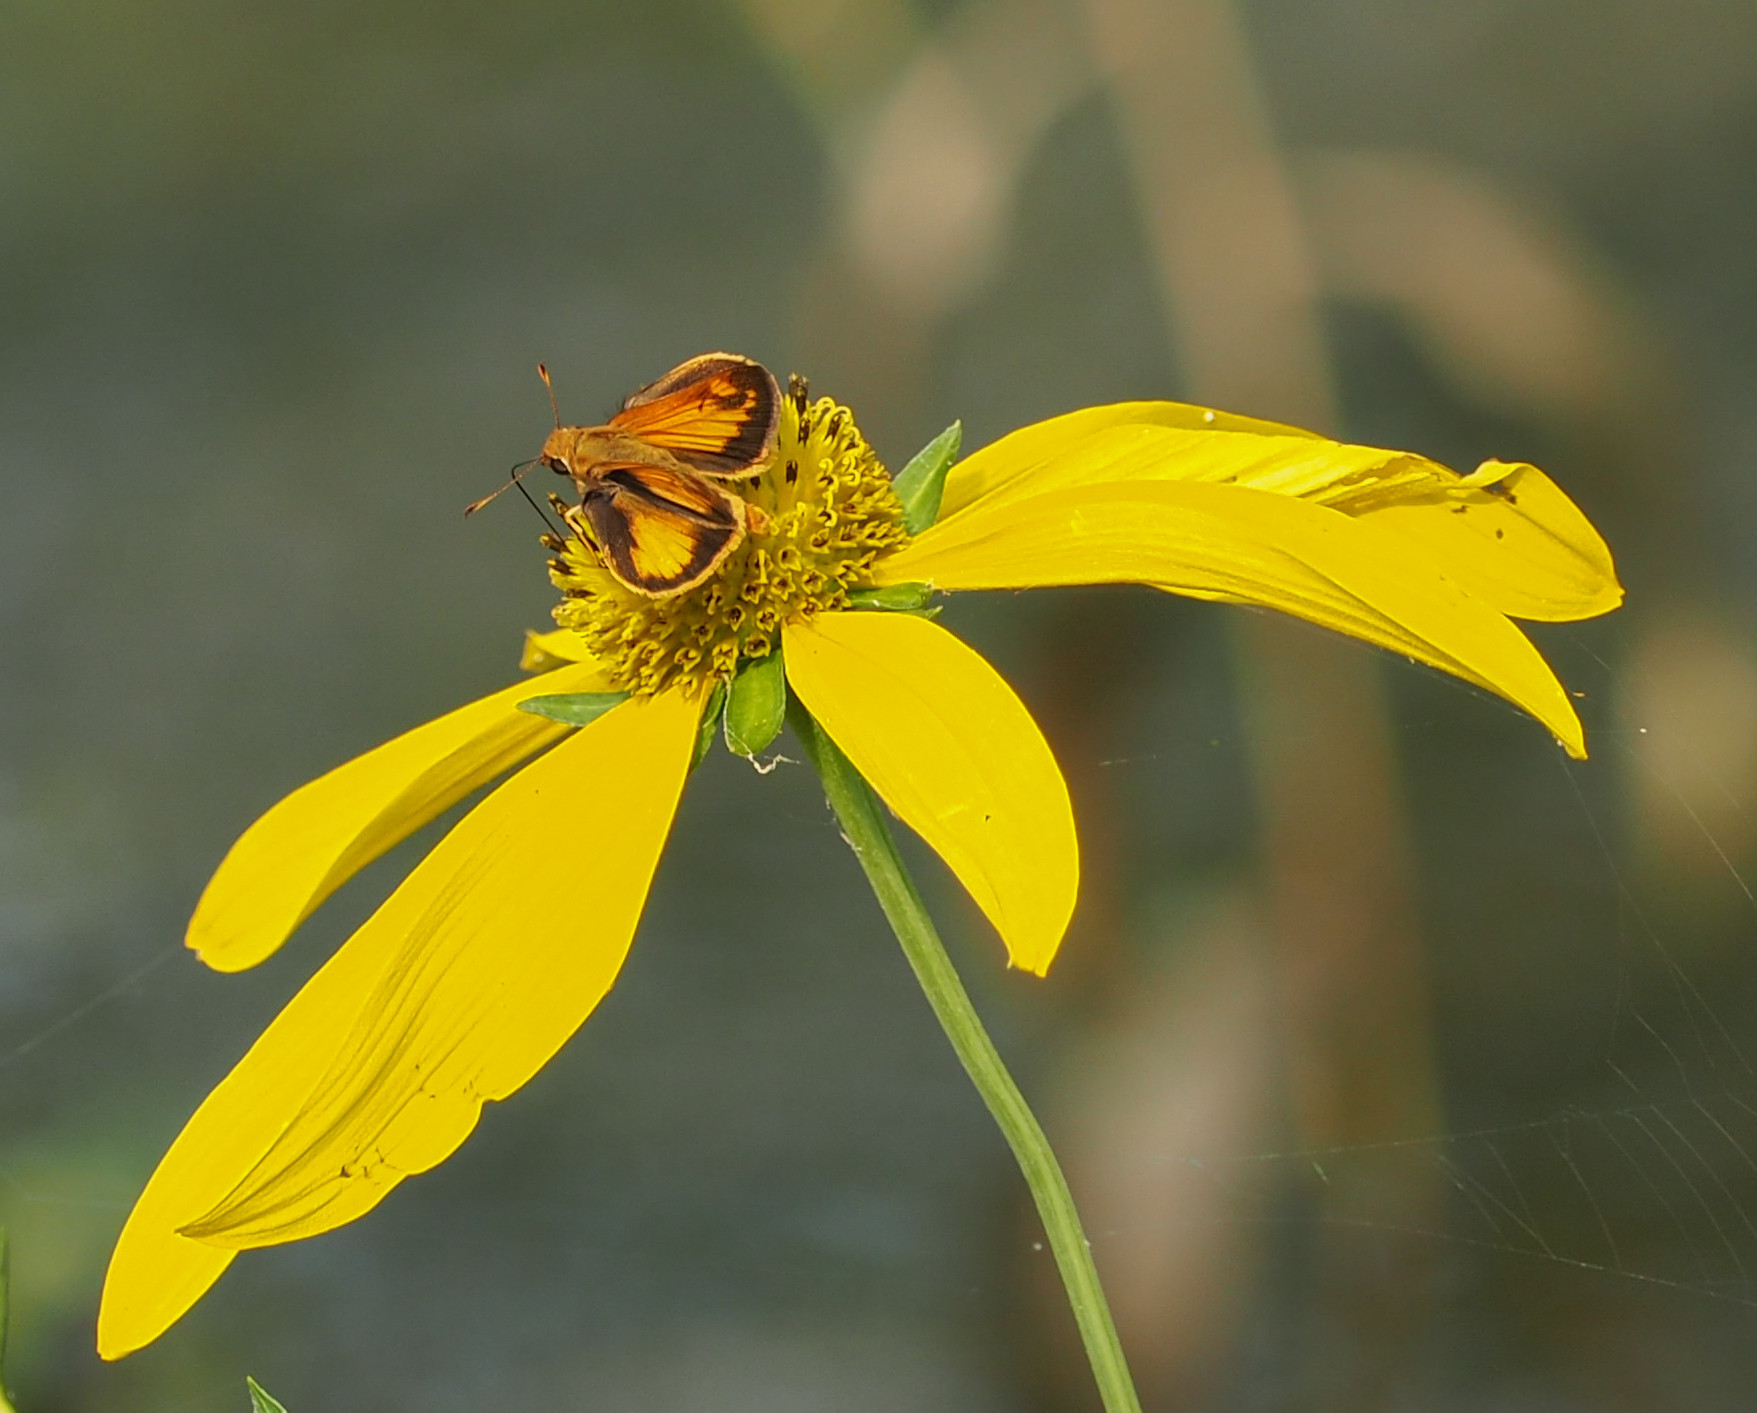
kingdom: Animalia
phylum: Arthropoda
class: Insecta
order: Lepidoptera
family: Hesperiidae
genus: Lon
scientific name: Lon zabulon
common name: Zabulon skipper
